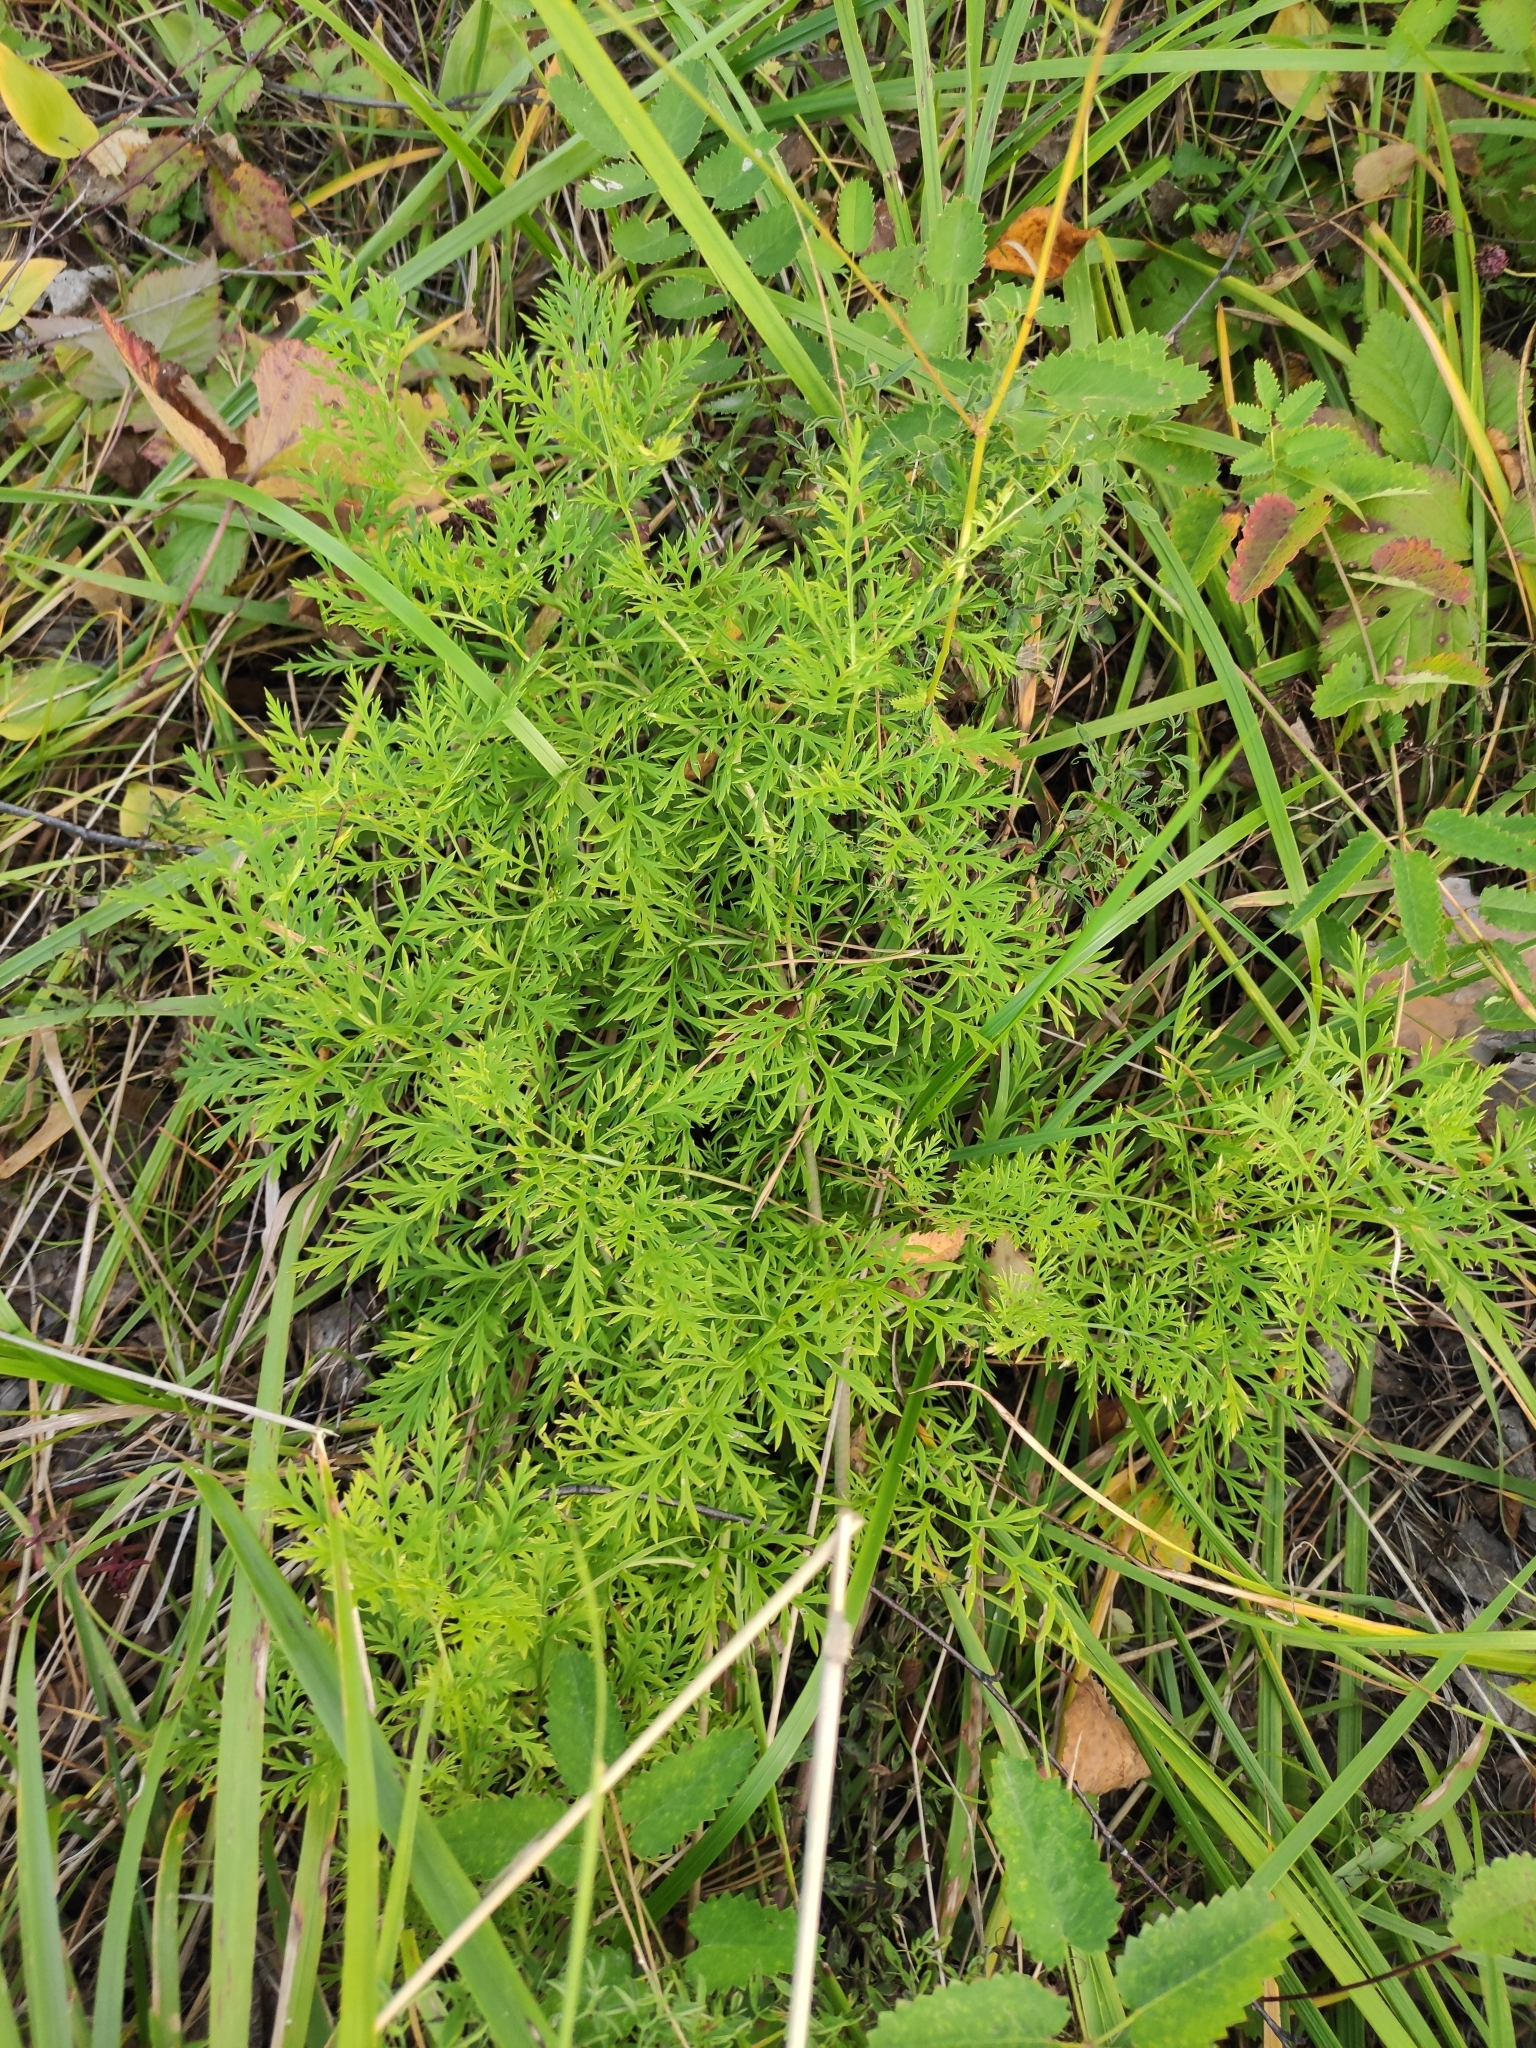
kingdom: Plantae
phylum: Tracheophyta
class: Magnoliopsida
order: Ranunculales
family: Ranunculaceae
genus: Adonis
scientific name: Adonis
